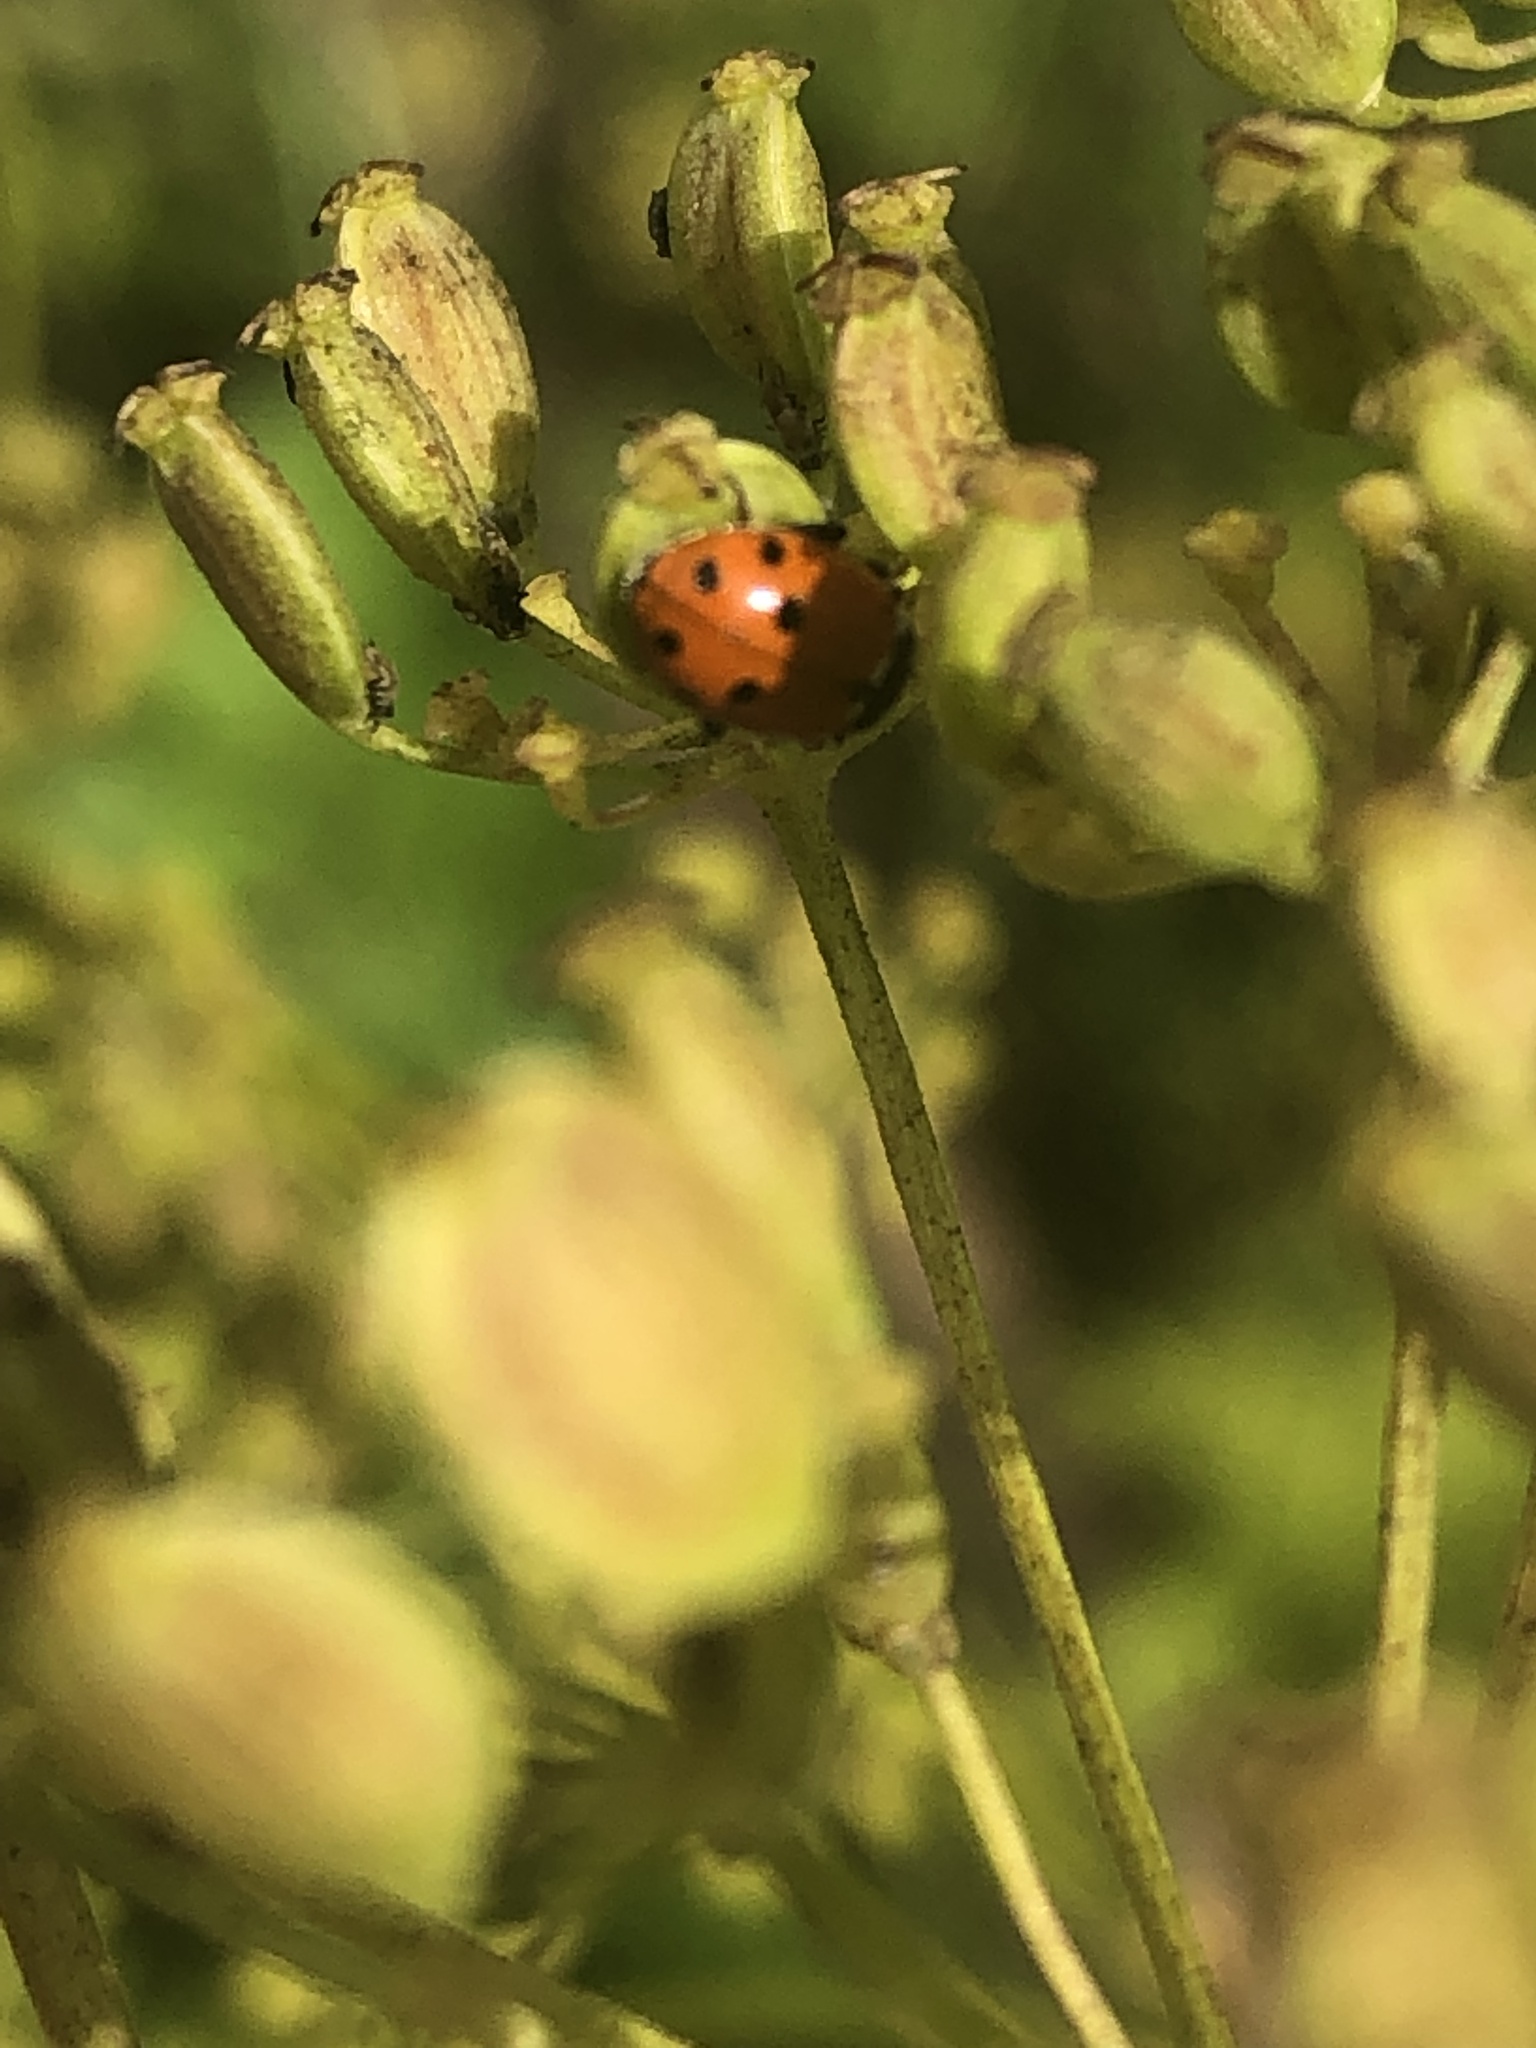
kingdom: Animalia
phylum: Arthropoda
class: Insecta
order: Coleoptera
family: Coccinellidae
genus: Hippodamia
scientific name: Hippodamia variegata
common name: Ladybird beetle
